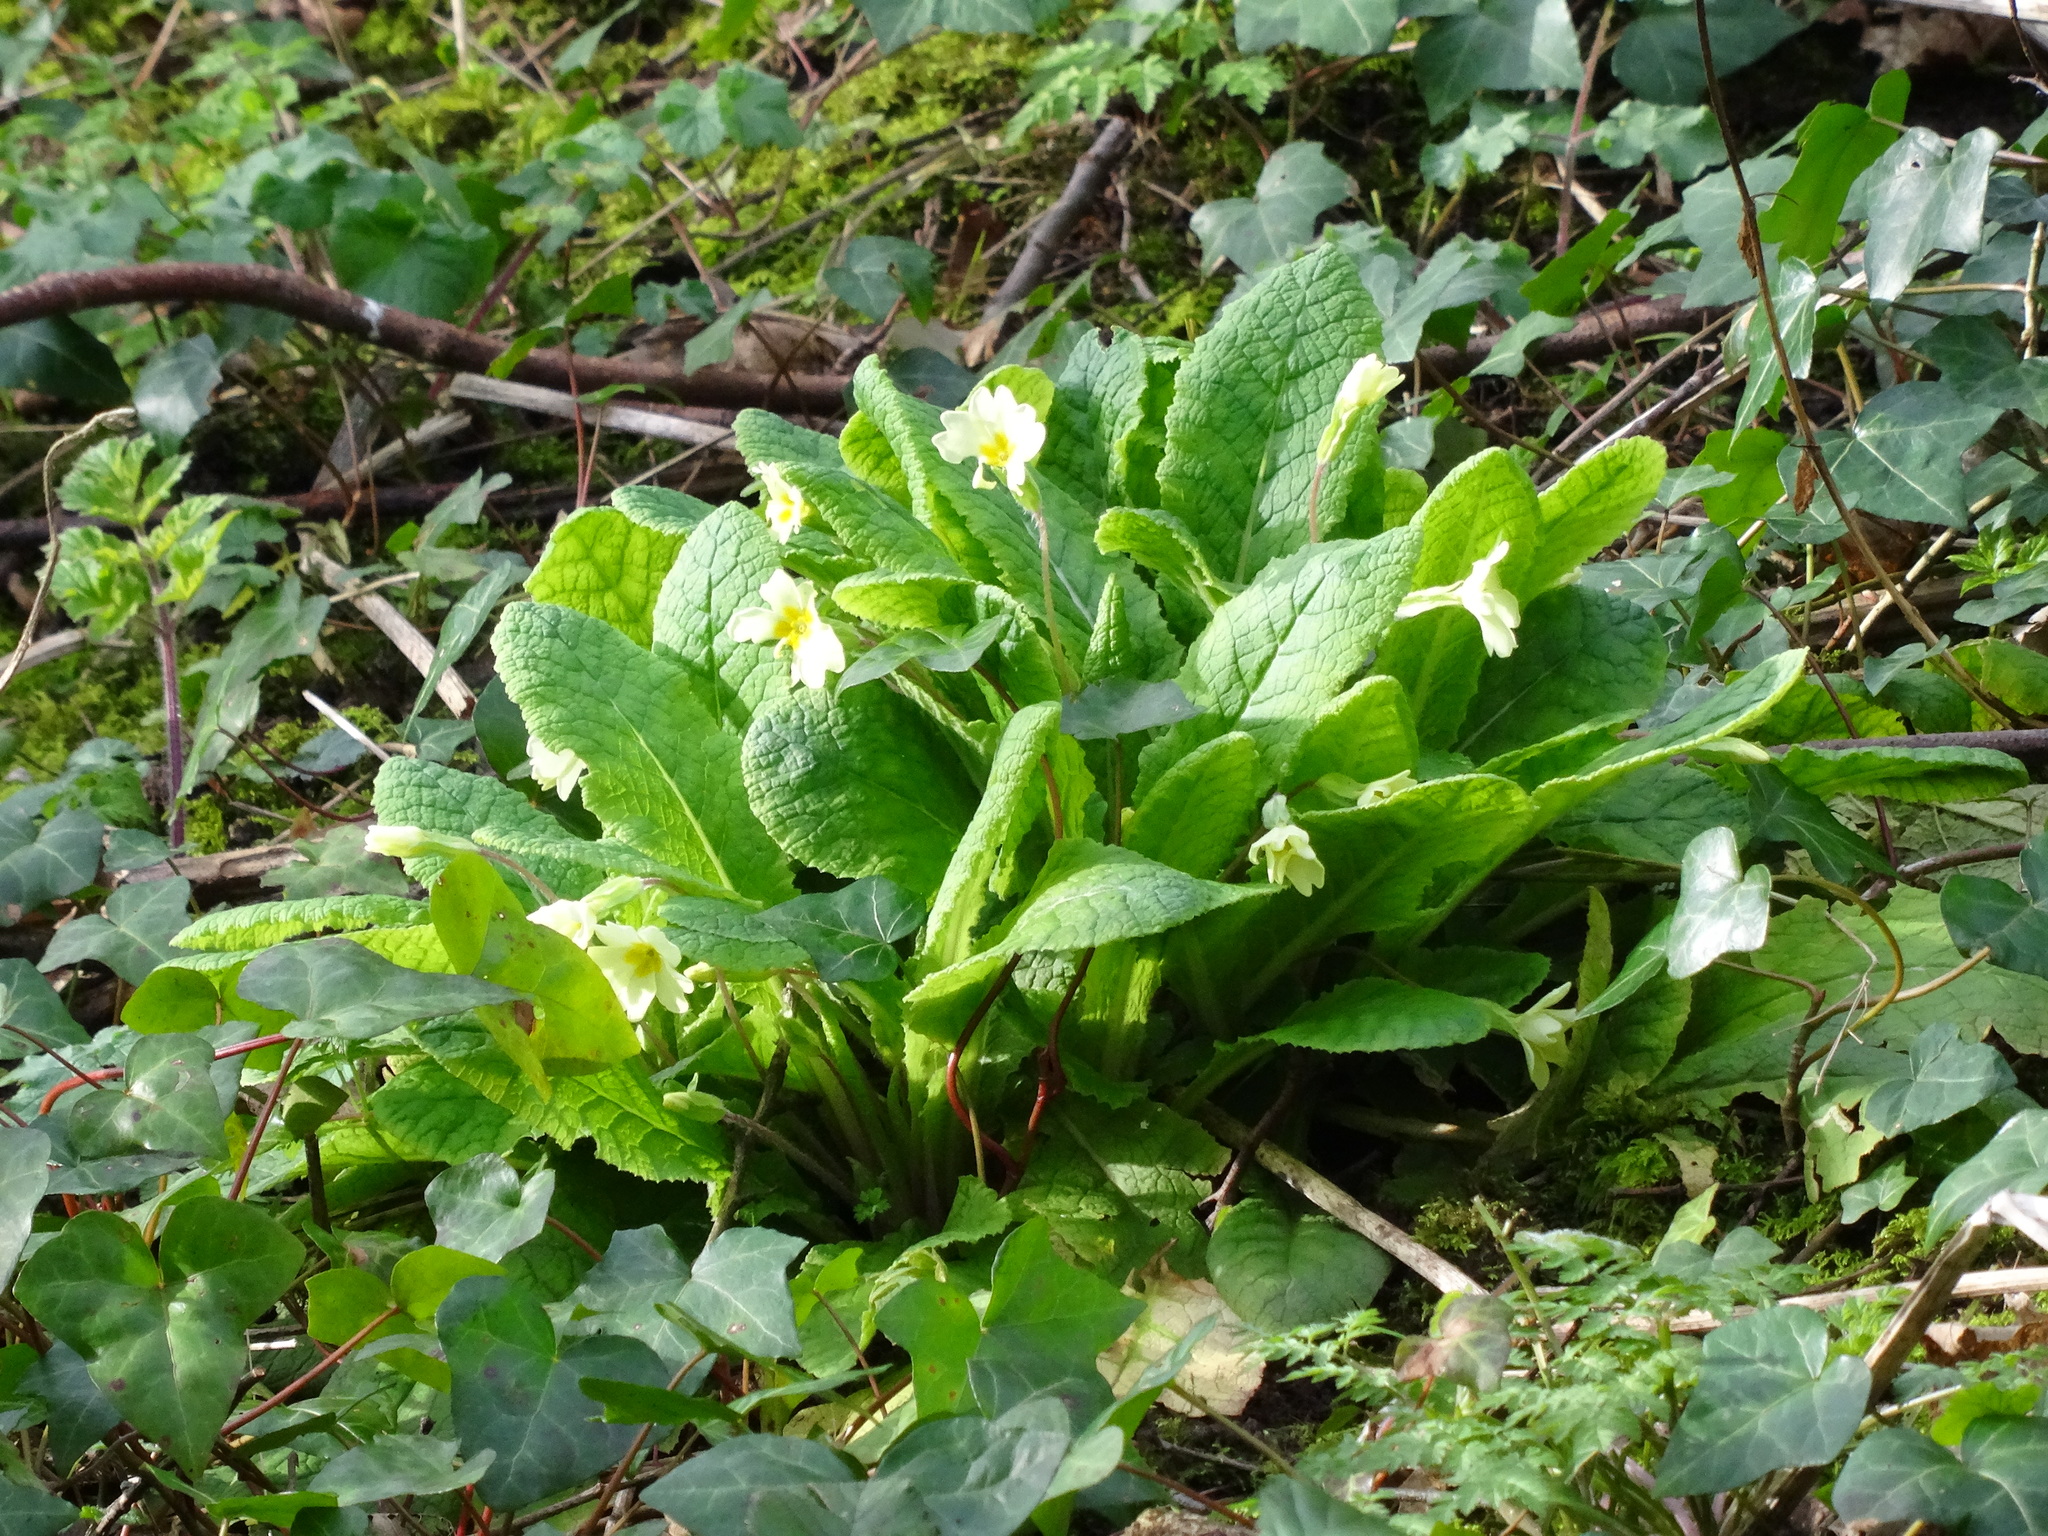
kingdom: Plantae
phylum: Tracheophyta
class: Magnoliopsida
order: Ericales
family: Primulaceae
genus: Primula
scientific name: Primula vulgaris
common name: Primrose
